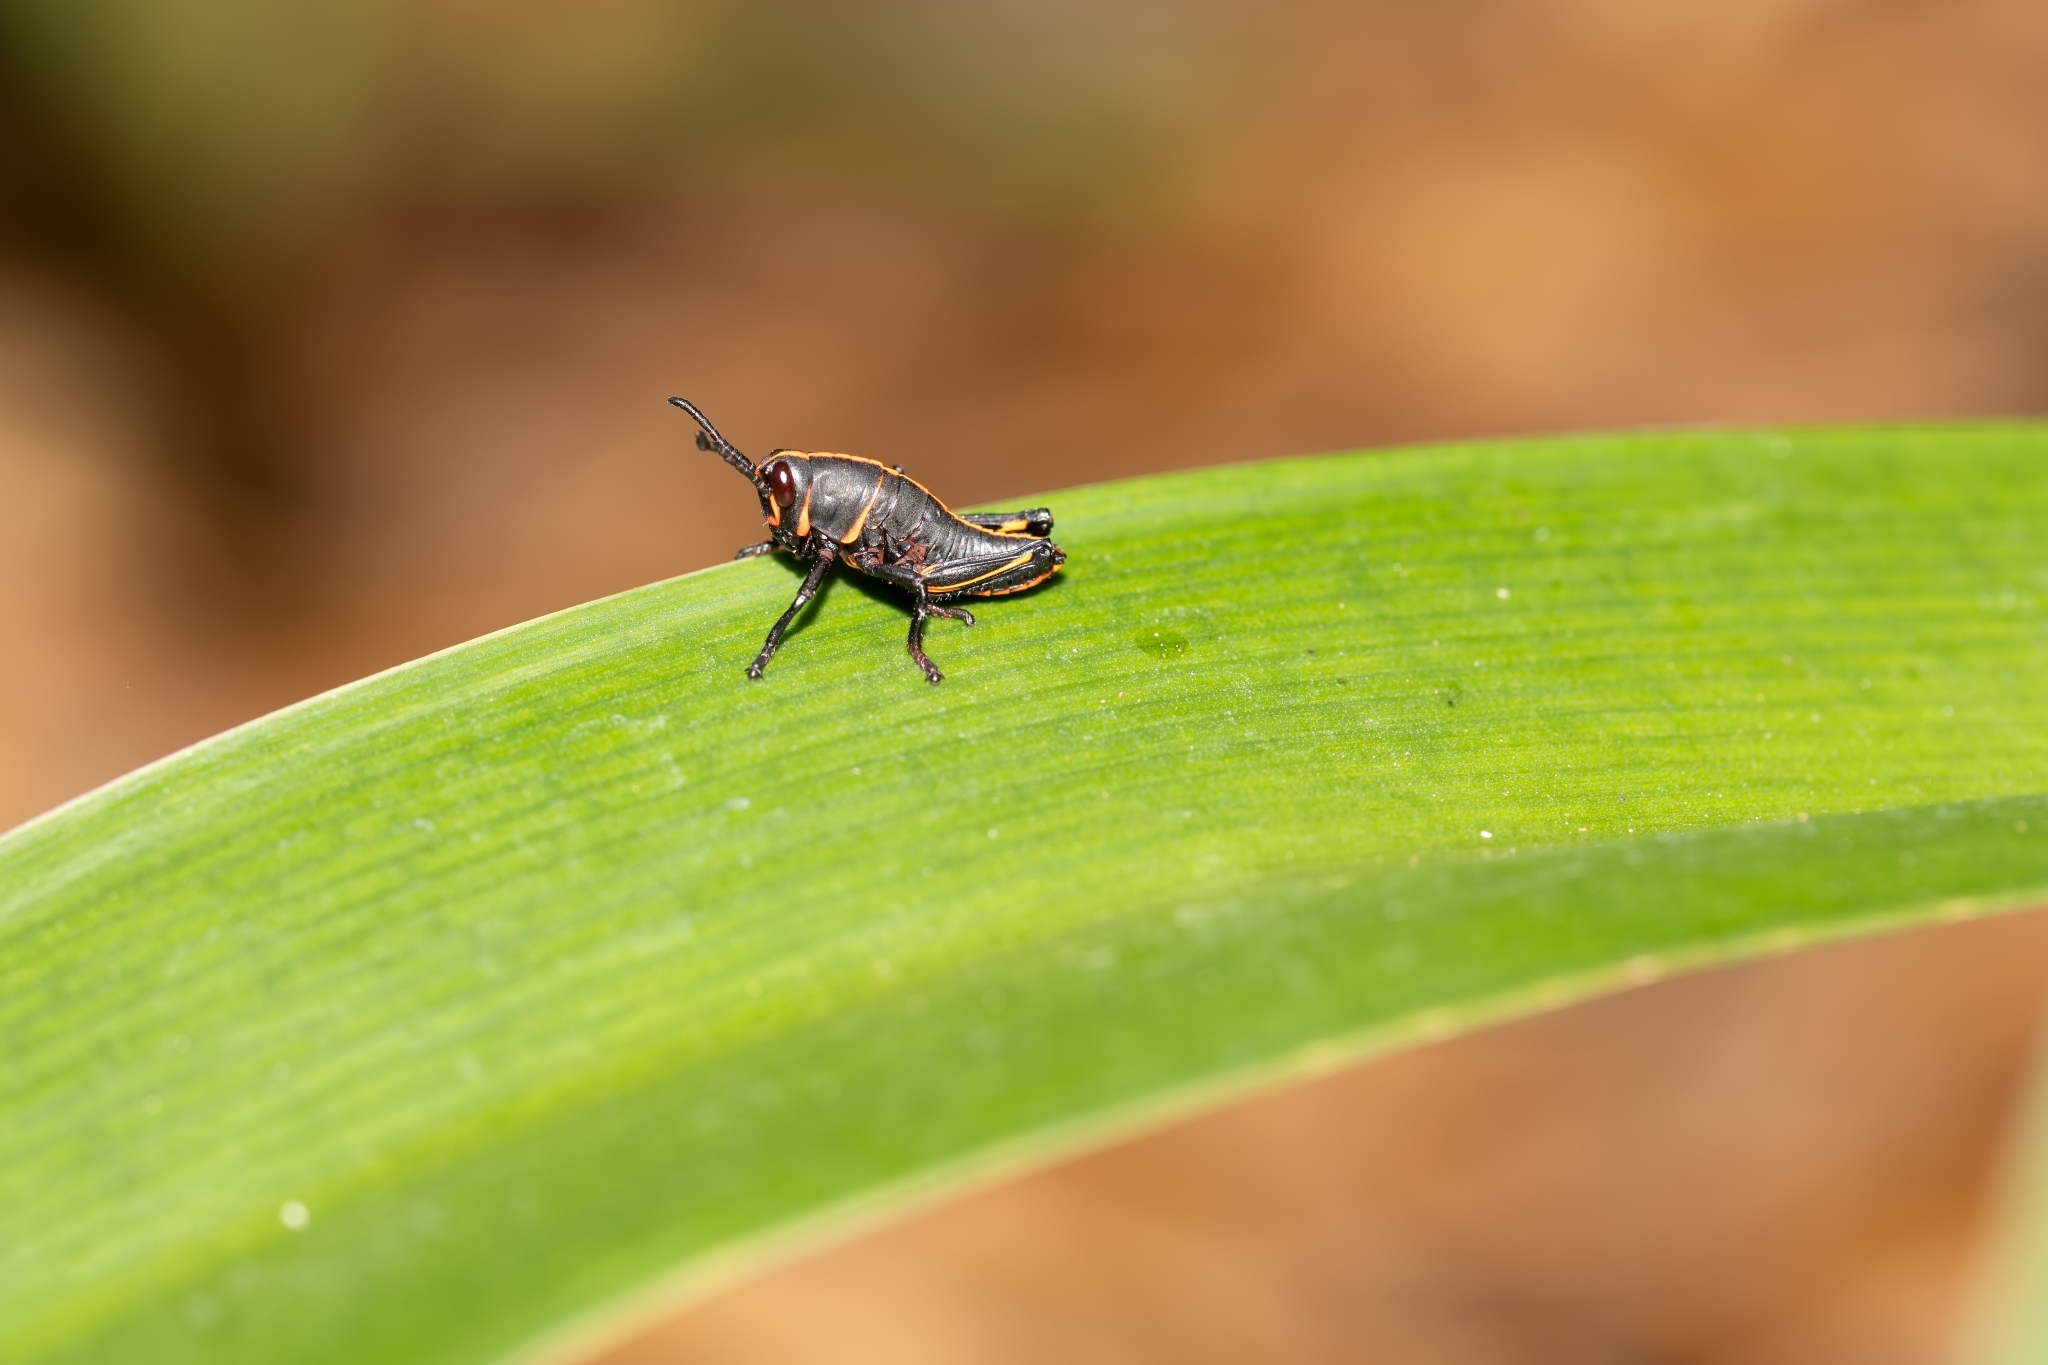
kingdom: Animalia
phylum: Arthropoda
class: Insecta
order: Orthoptera
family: Romaleidae
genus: Romalea
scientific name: Romalea microptera
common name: Eastern lubber grasshopper
